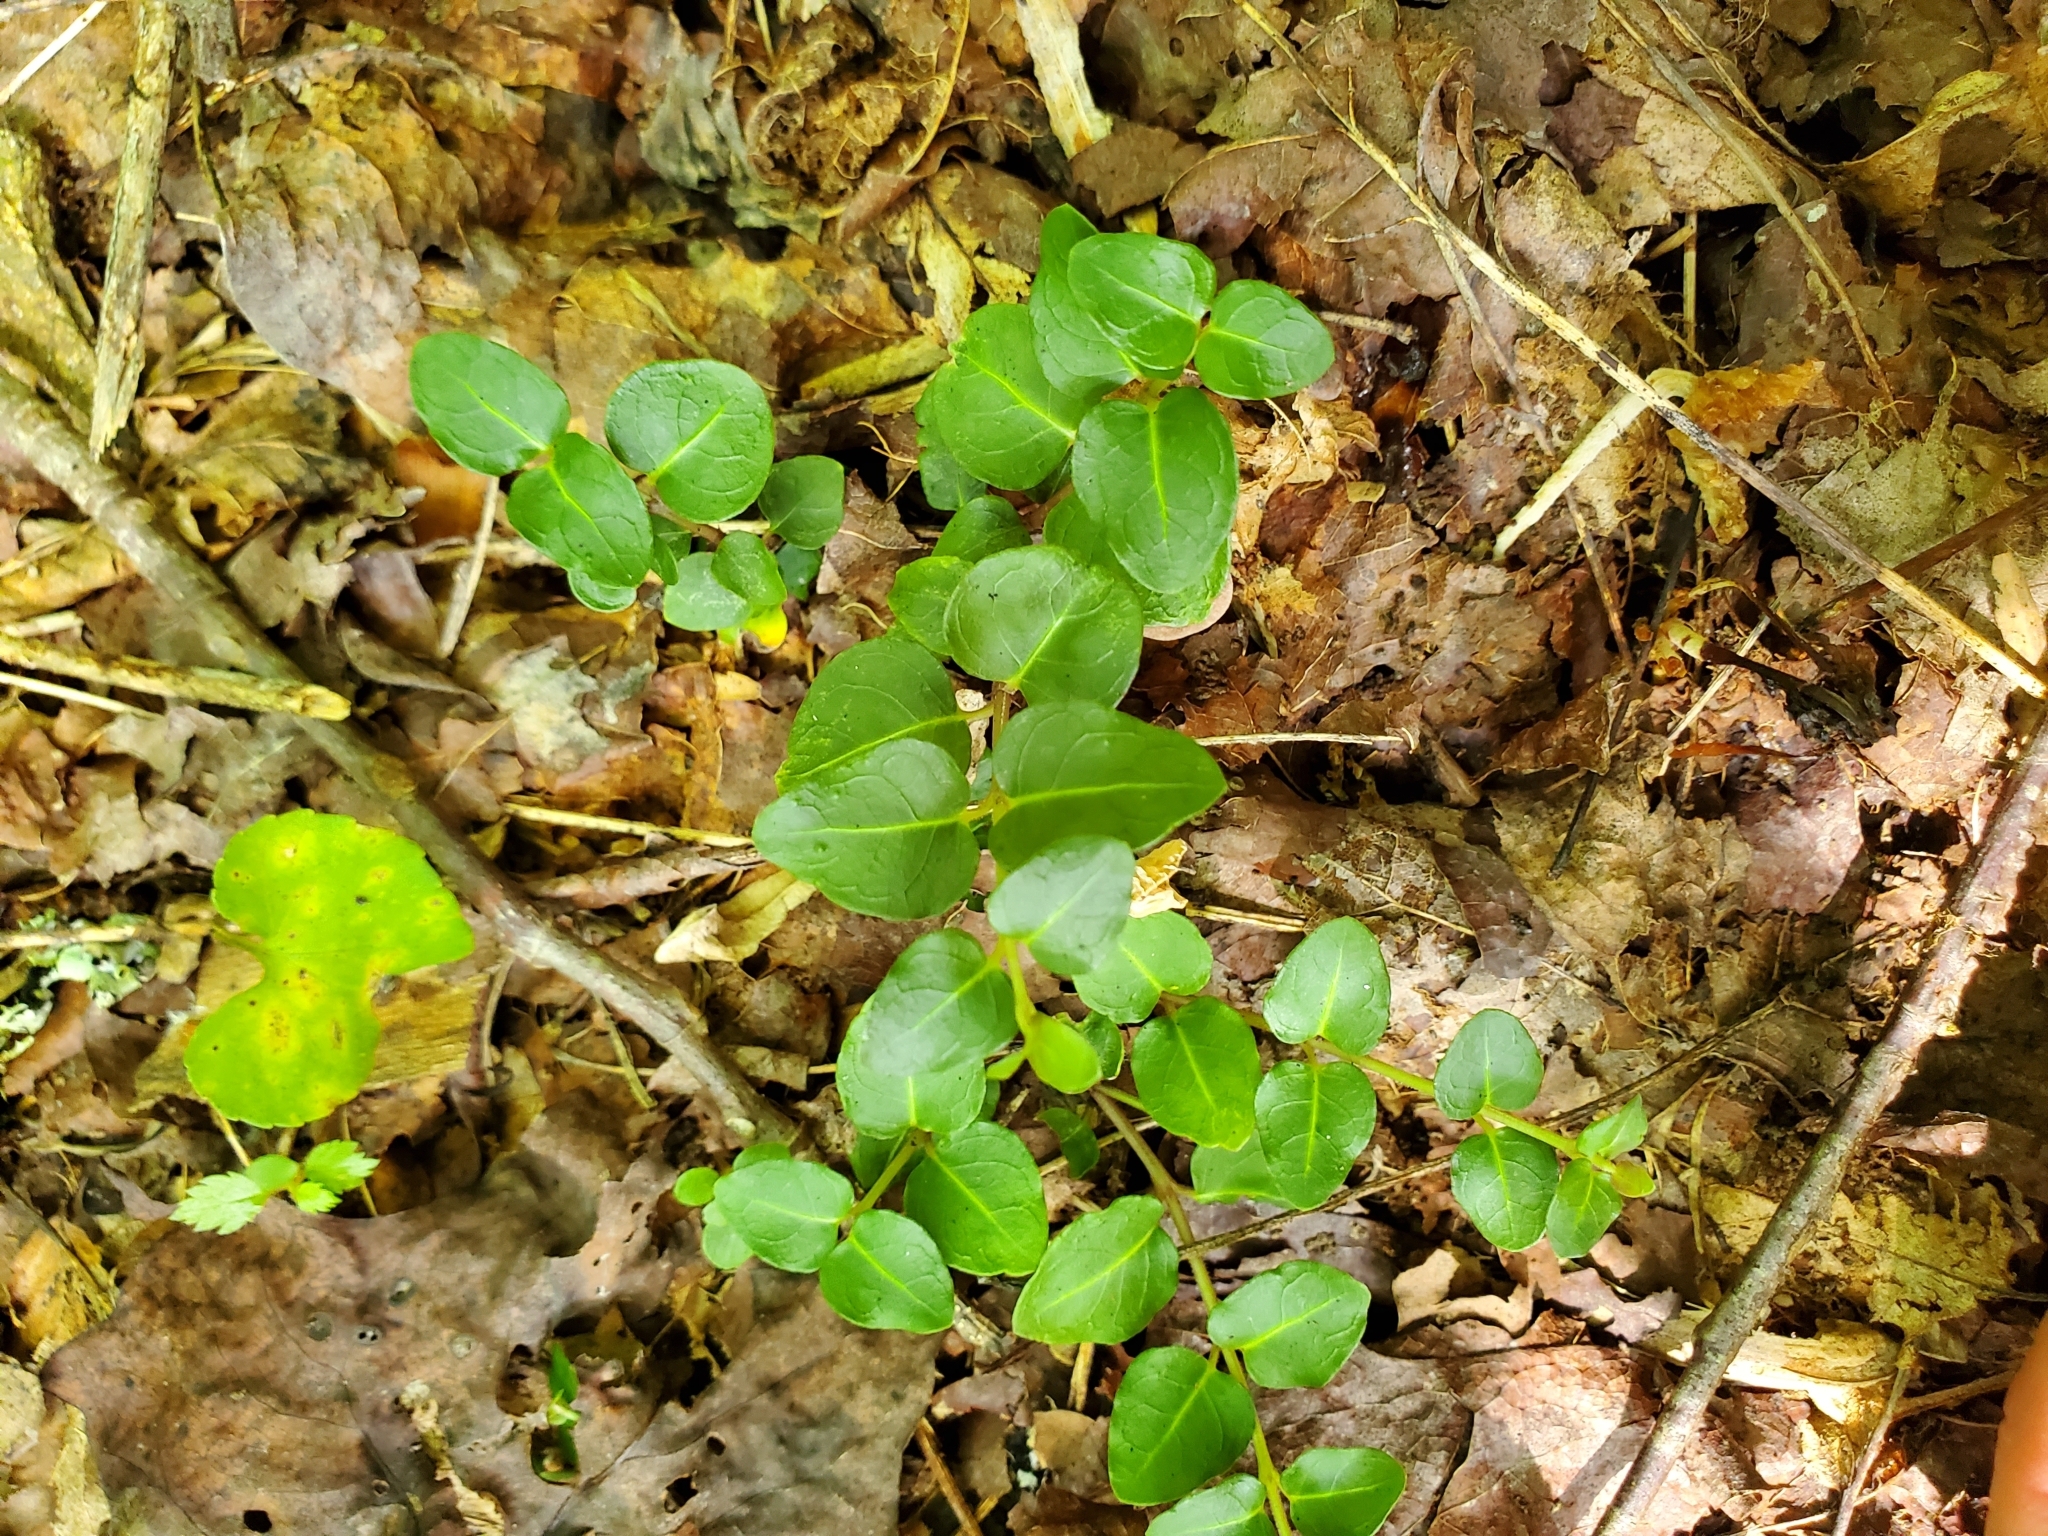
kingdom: Plantae
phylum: Tracheophyta
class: Magnoliopsida
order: Gentianales
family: Rubiaceae
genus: Mitchella
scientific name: Mitchella repens
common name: Partridge-berry
